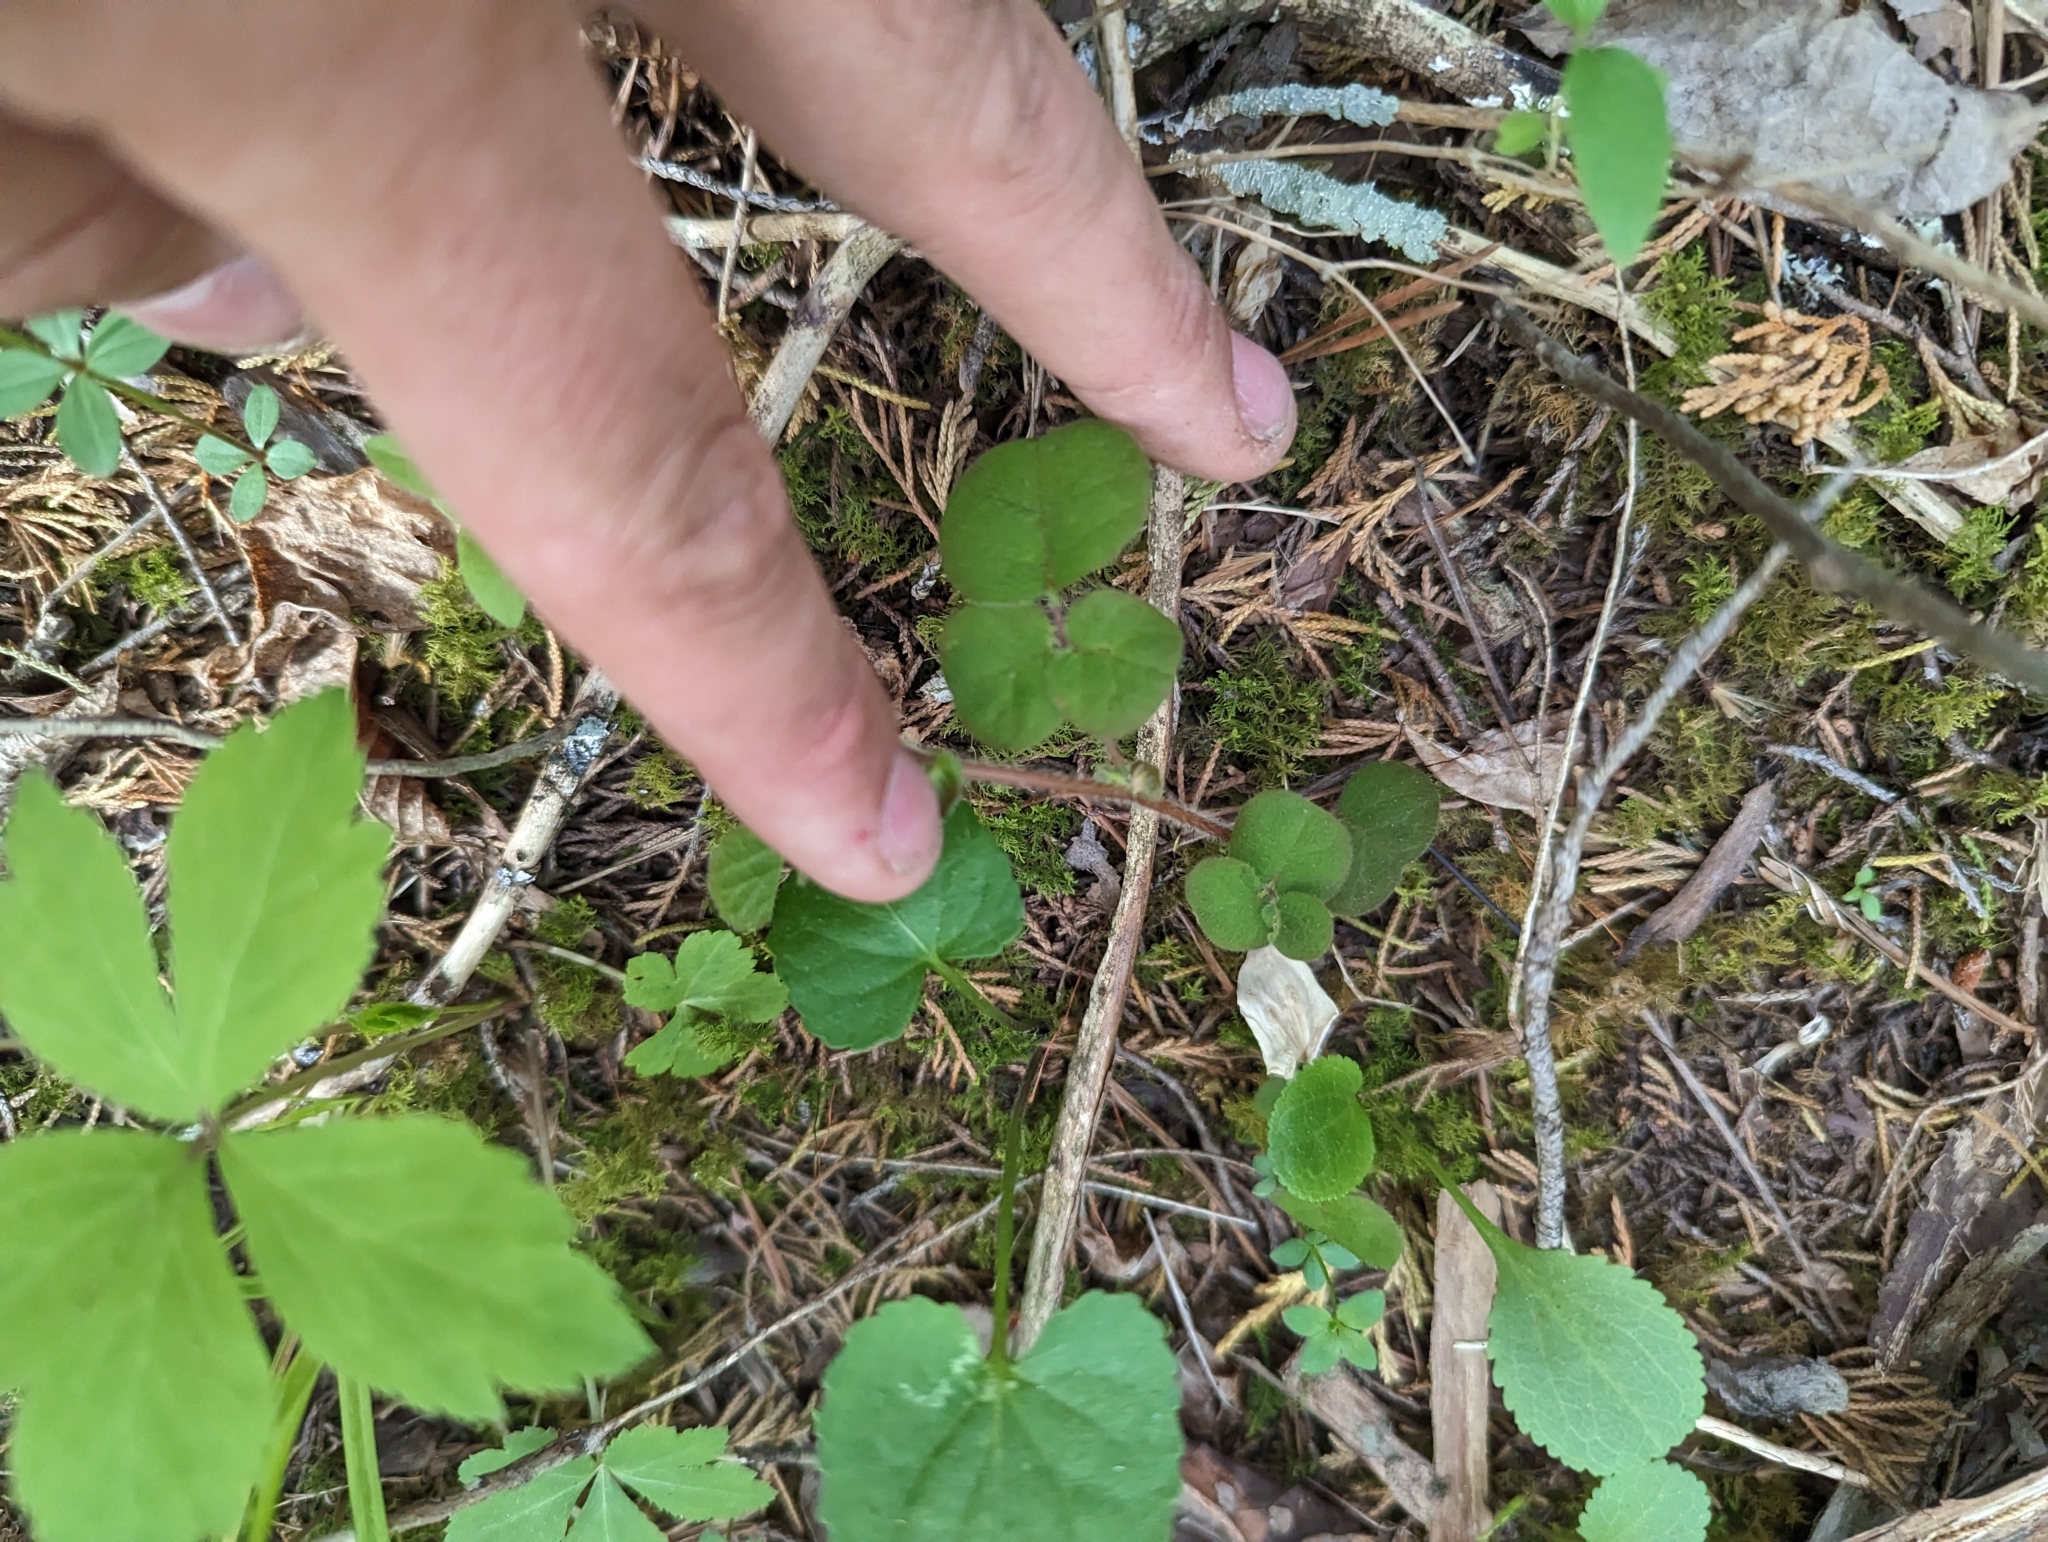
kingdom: Plantae
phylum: Tracheophyta
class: Magnoliopsida
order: Fabales
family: Fabaceae
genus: Desmodium
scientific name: Desmodium rotundifolium
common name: Dollarleaf
